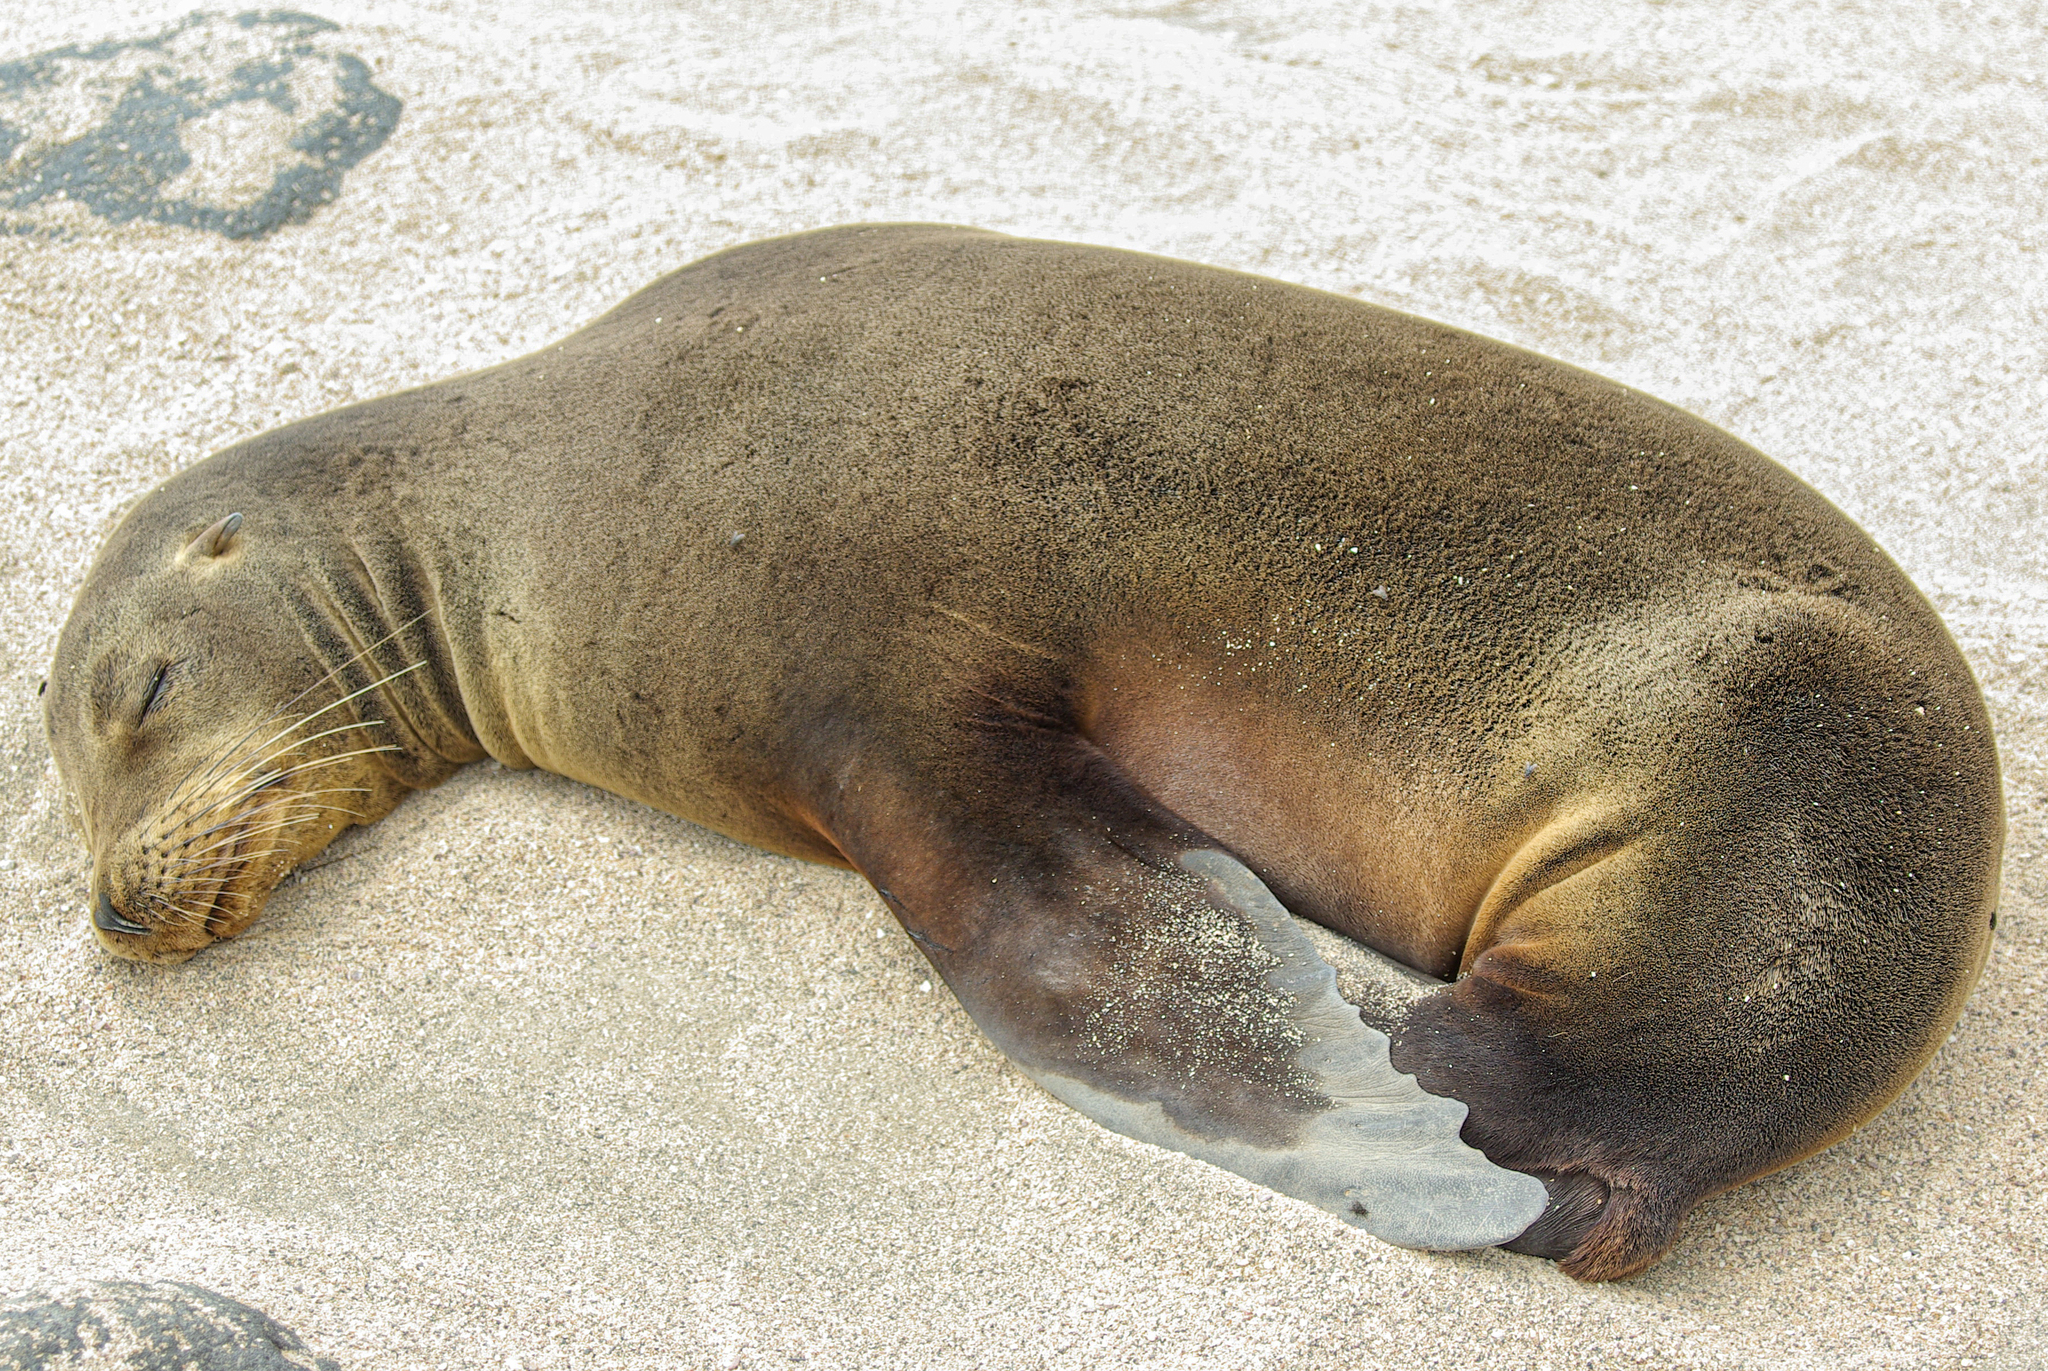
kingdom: Animalia
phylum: Chordata
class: Mammalia
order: Carnivora
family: Otariidae
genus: Zalophus
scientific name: Zalophus wollebaeki
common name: Galapagos sea lion
